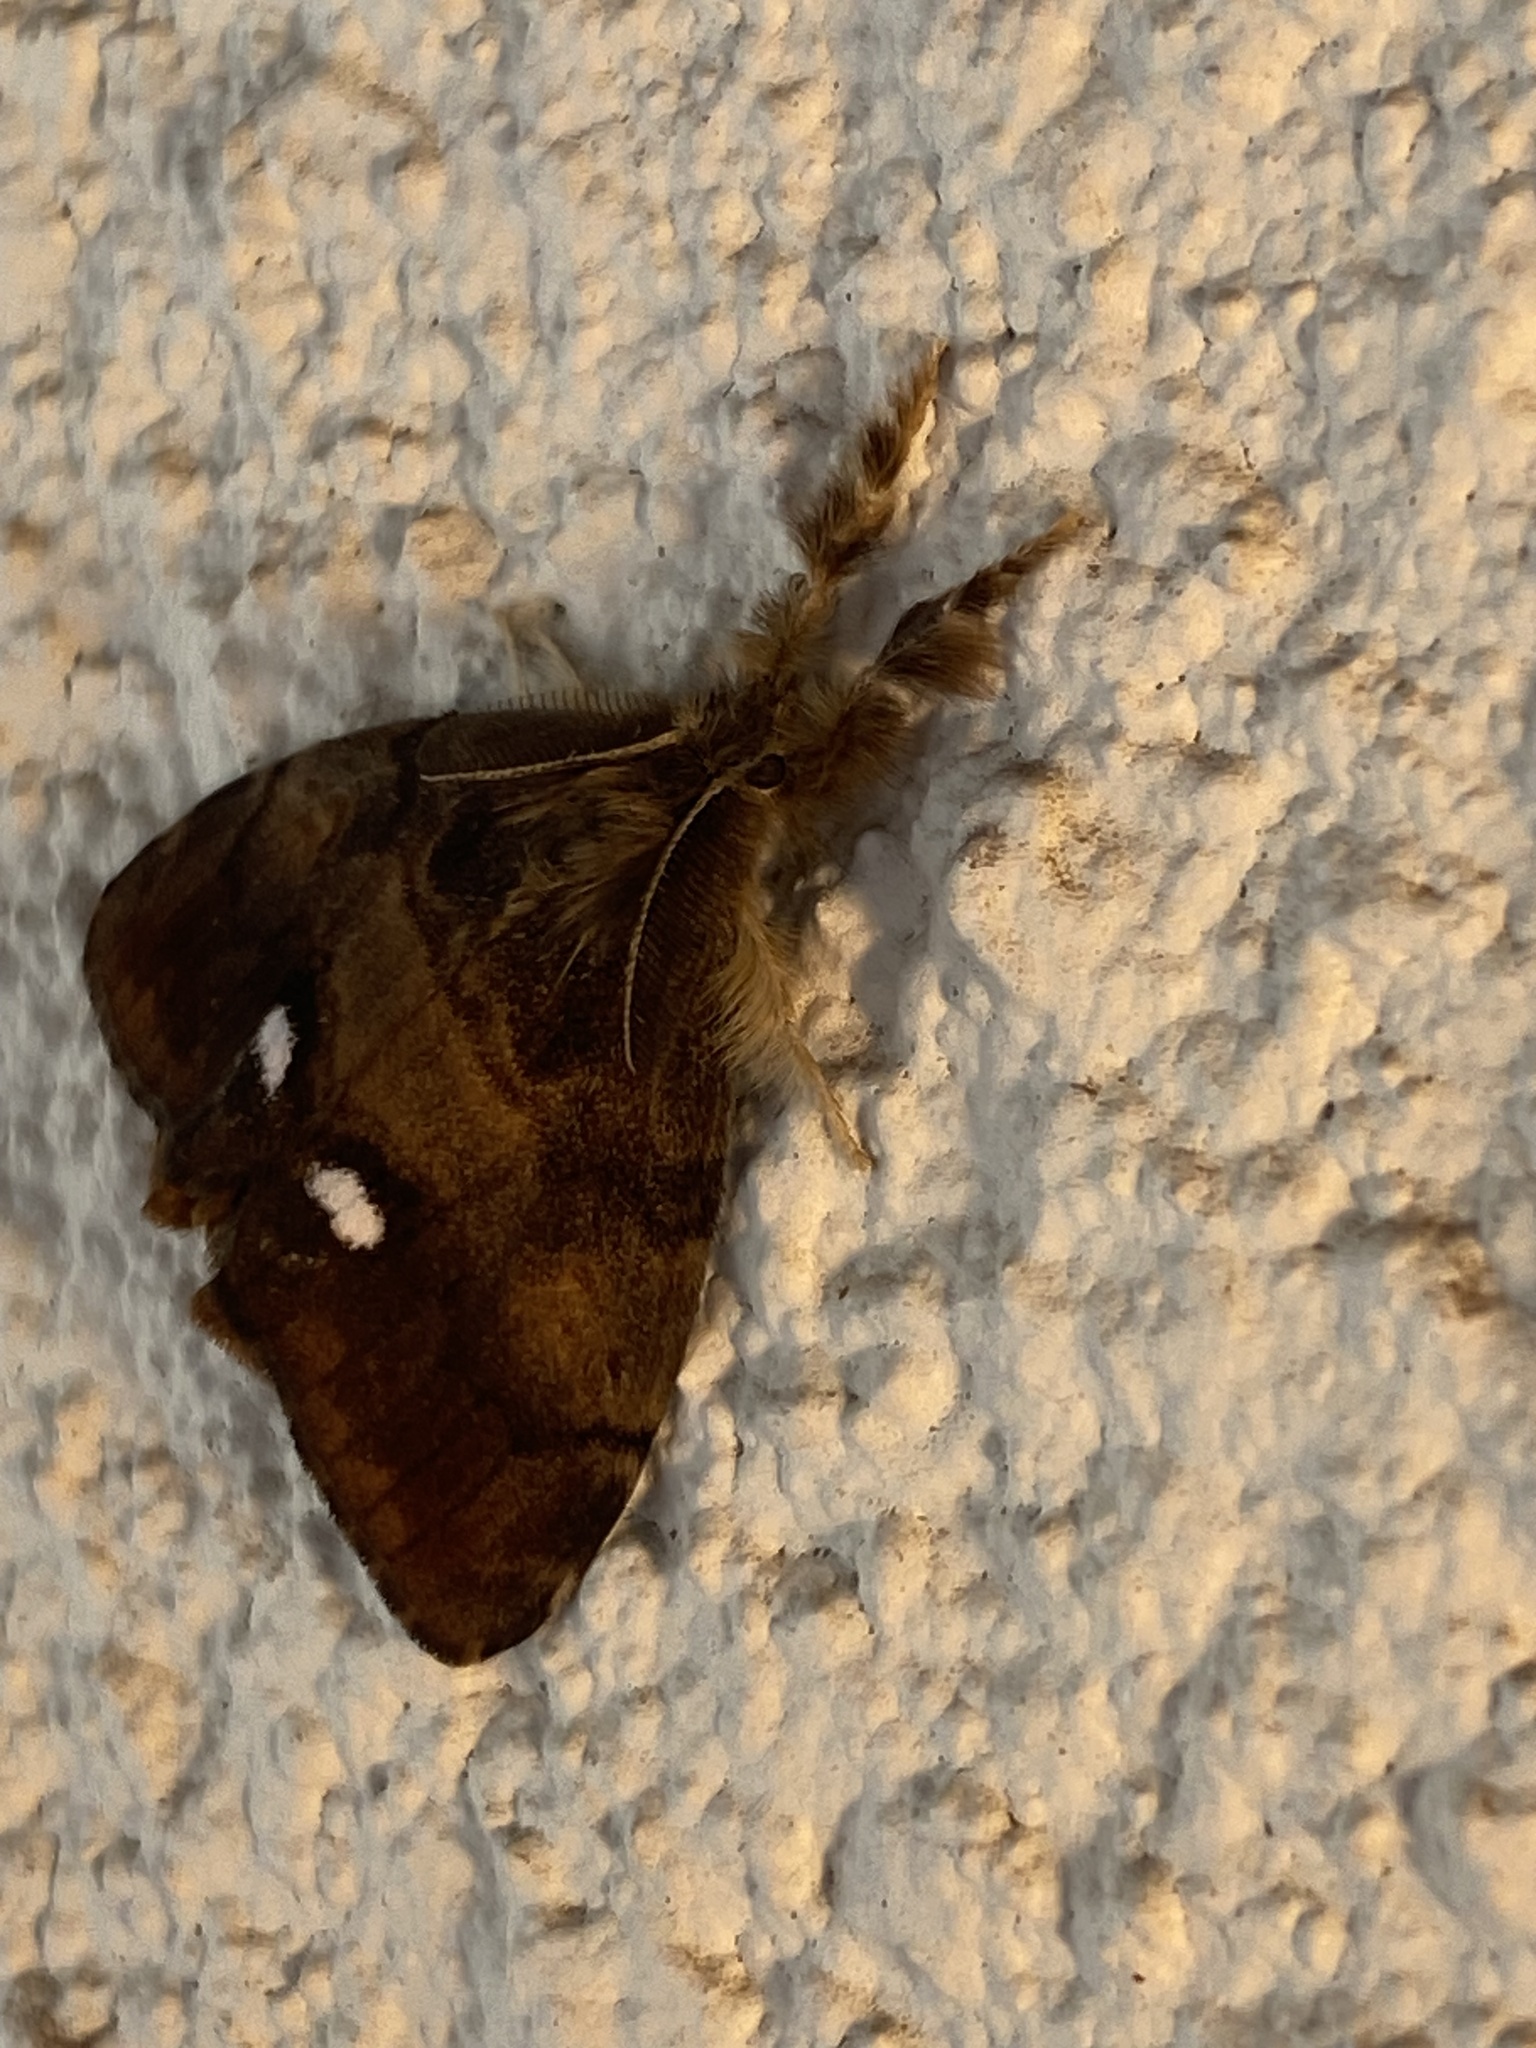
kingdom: Animalia
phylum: Arthropoda
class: Insecta
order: Lepidoptera
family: Erebidae
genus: Orgyia
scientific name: Orgyia antiqua
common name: Vapourer
